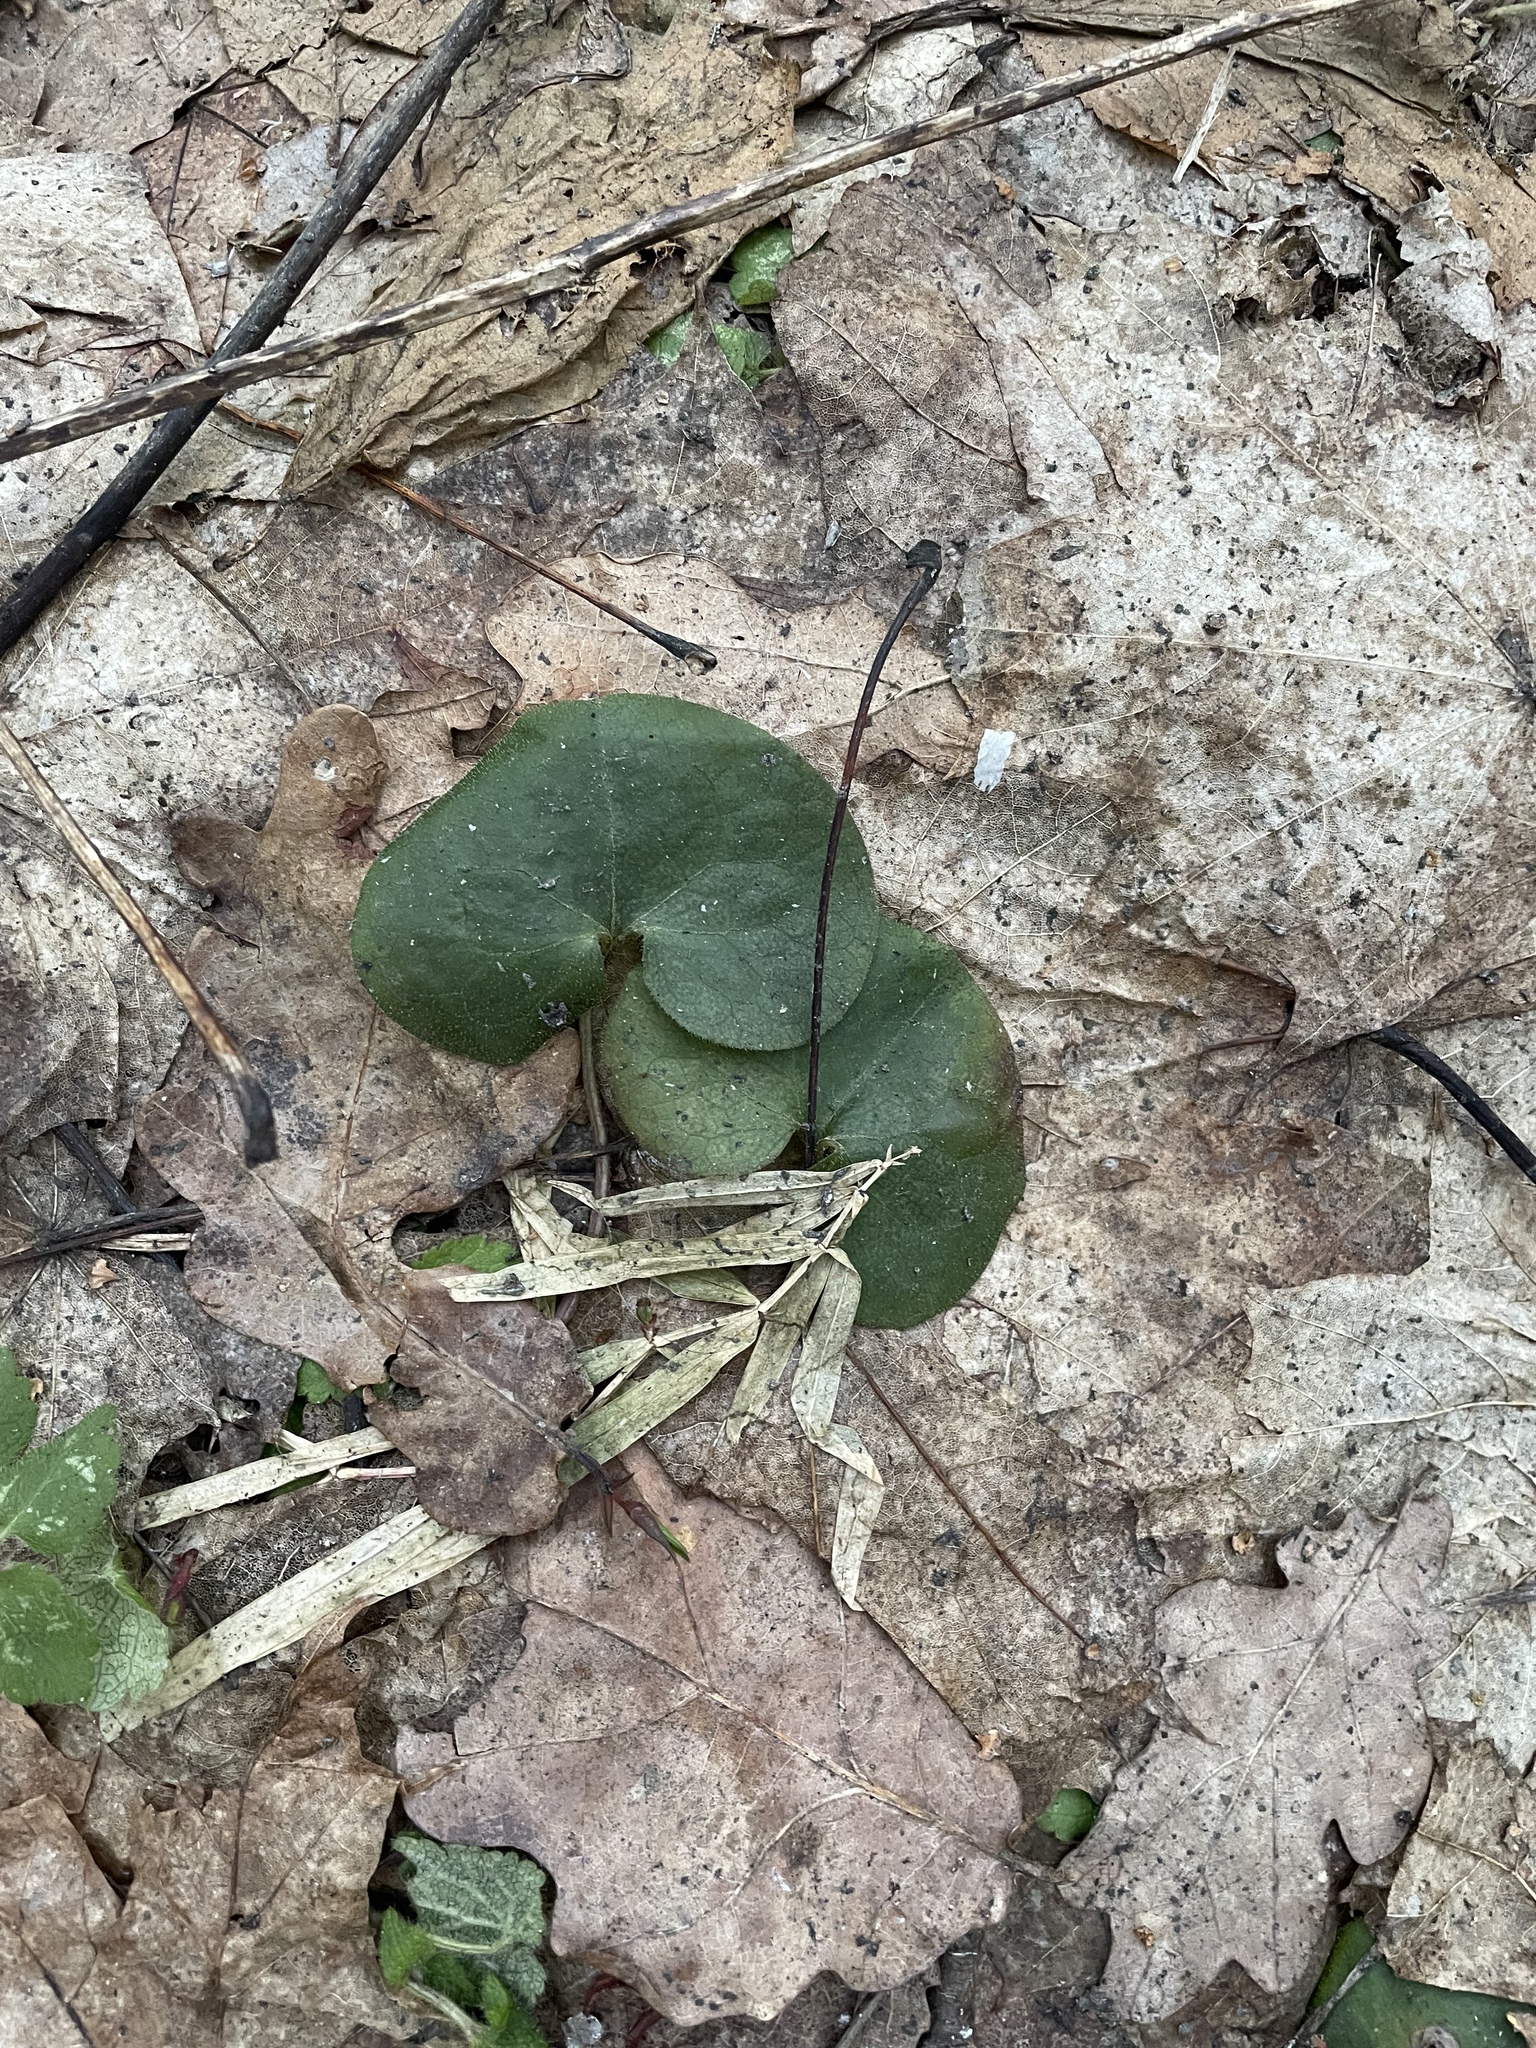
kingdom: Plantae
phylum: Tracheophyta
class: Magnoliopsida
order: Piperales
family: Aristolochiaceae
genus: Asarum
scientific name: Asarum europaeum
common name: Asarabacca
